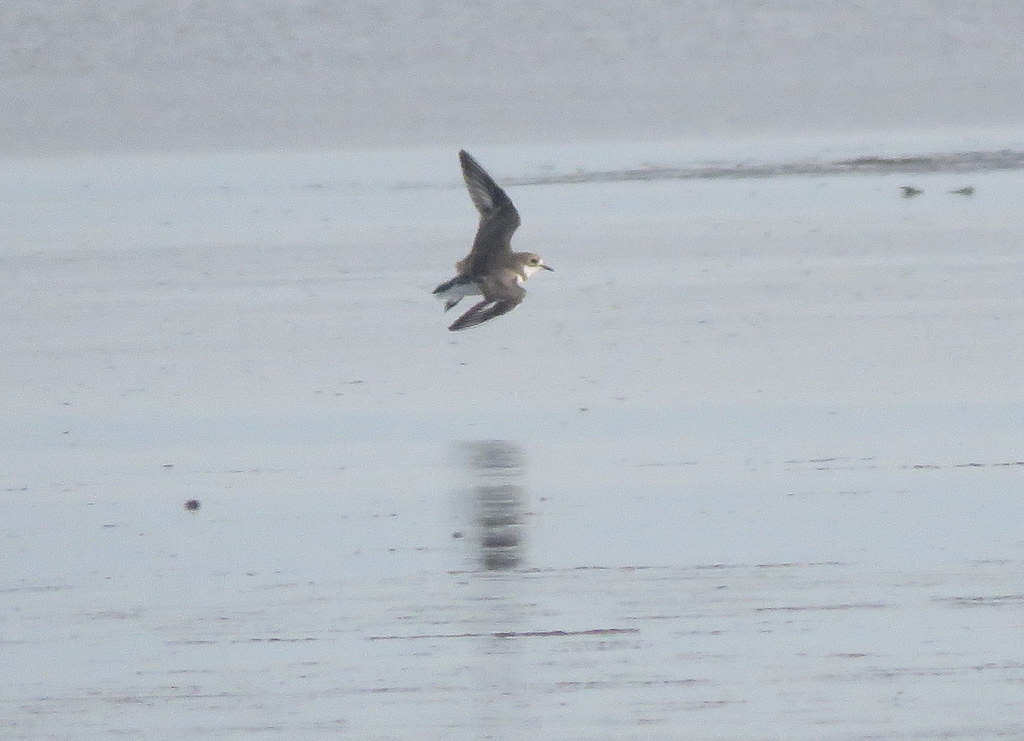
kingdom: Animalia
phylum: Chordata
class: Aves
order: Charadriiformes
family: Charadriidae
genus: Anarhynchus
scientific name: Anarhynchus
